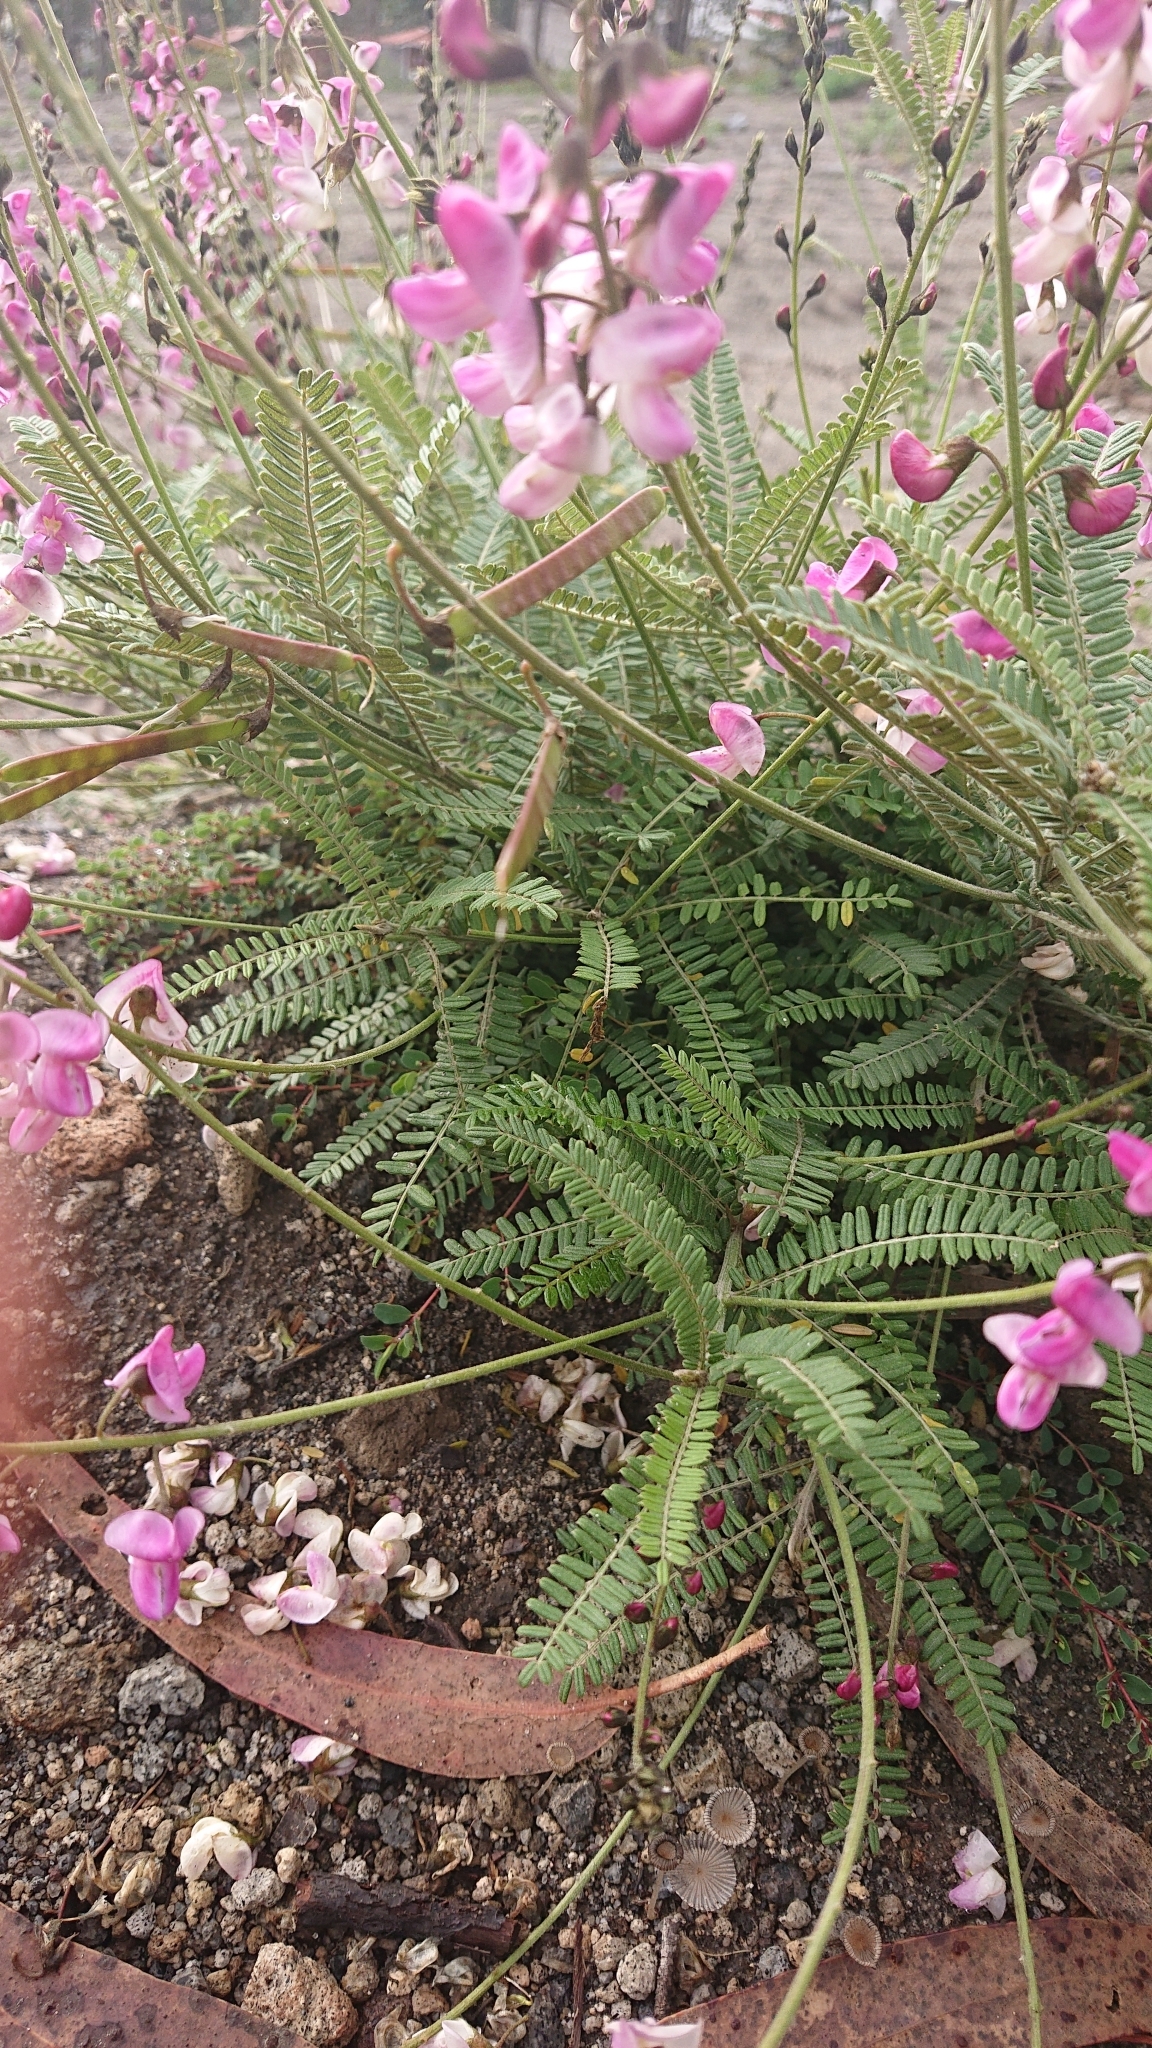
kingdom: Plantae
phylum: Tracheophyta
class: Magnoliopsida
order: Fabales
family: Fabaceae
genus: Coursetia
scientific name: Coursetia dubia
